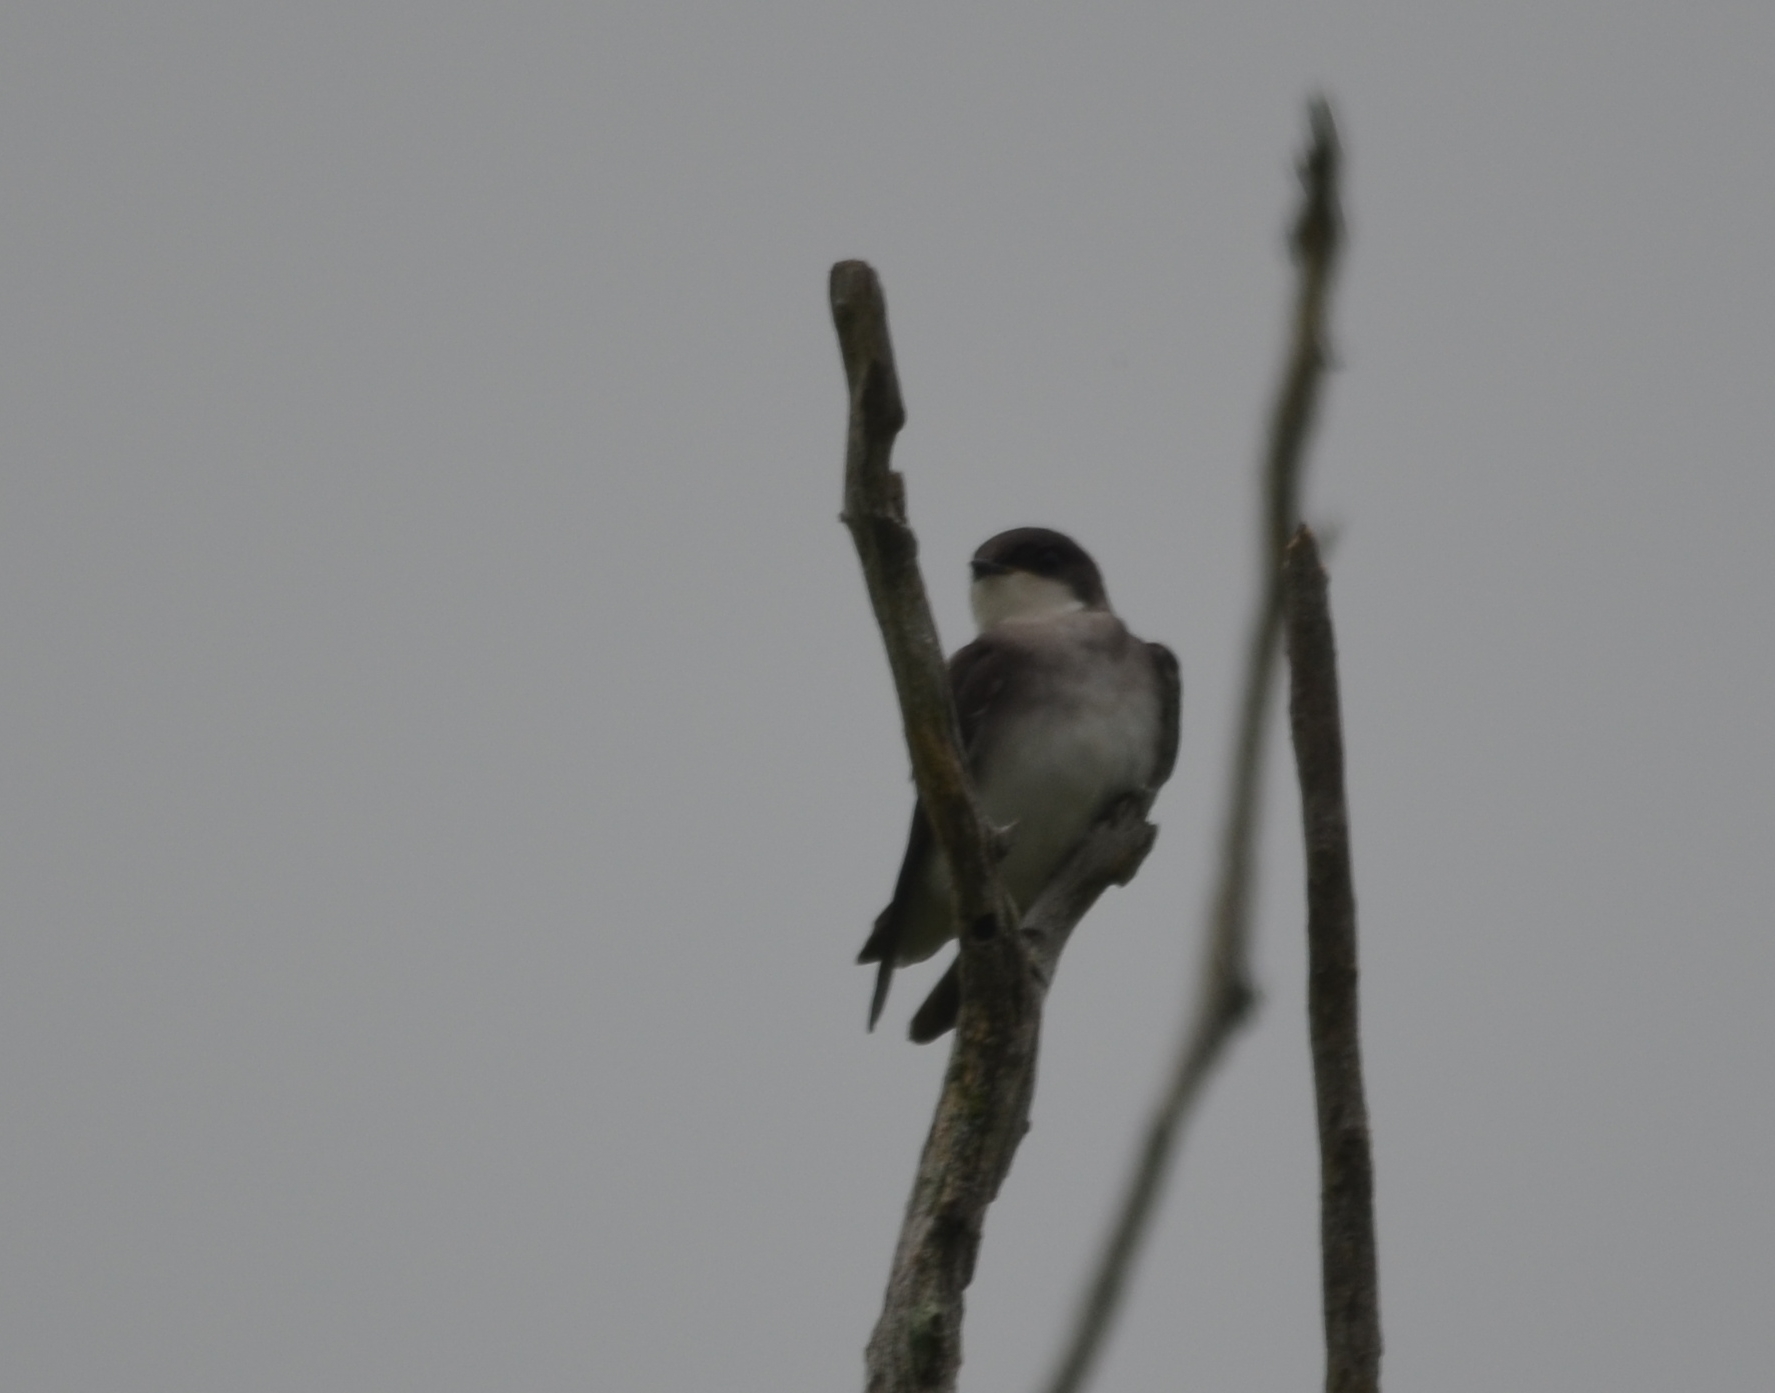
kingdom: Animalia
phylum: Chordata
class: Aves
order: Passeriformes
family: Hirundinidae
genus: Tachycineta
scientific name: Tachycineta bicolor
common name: Tree swallow
